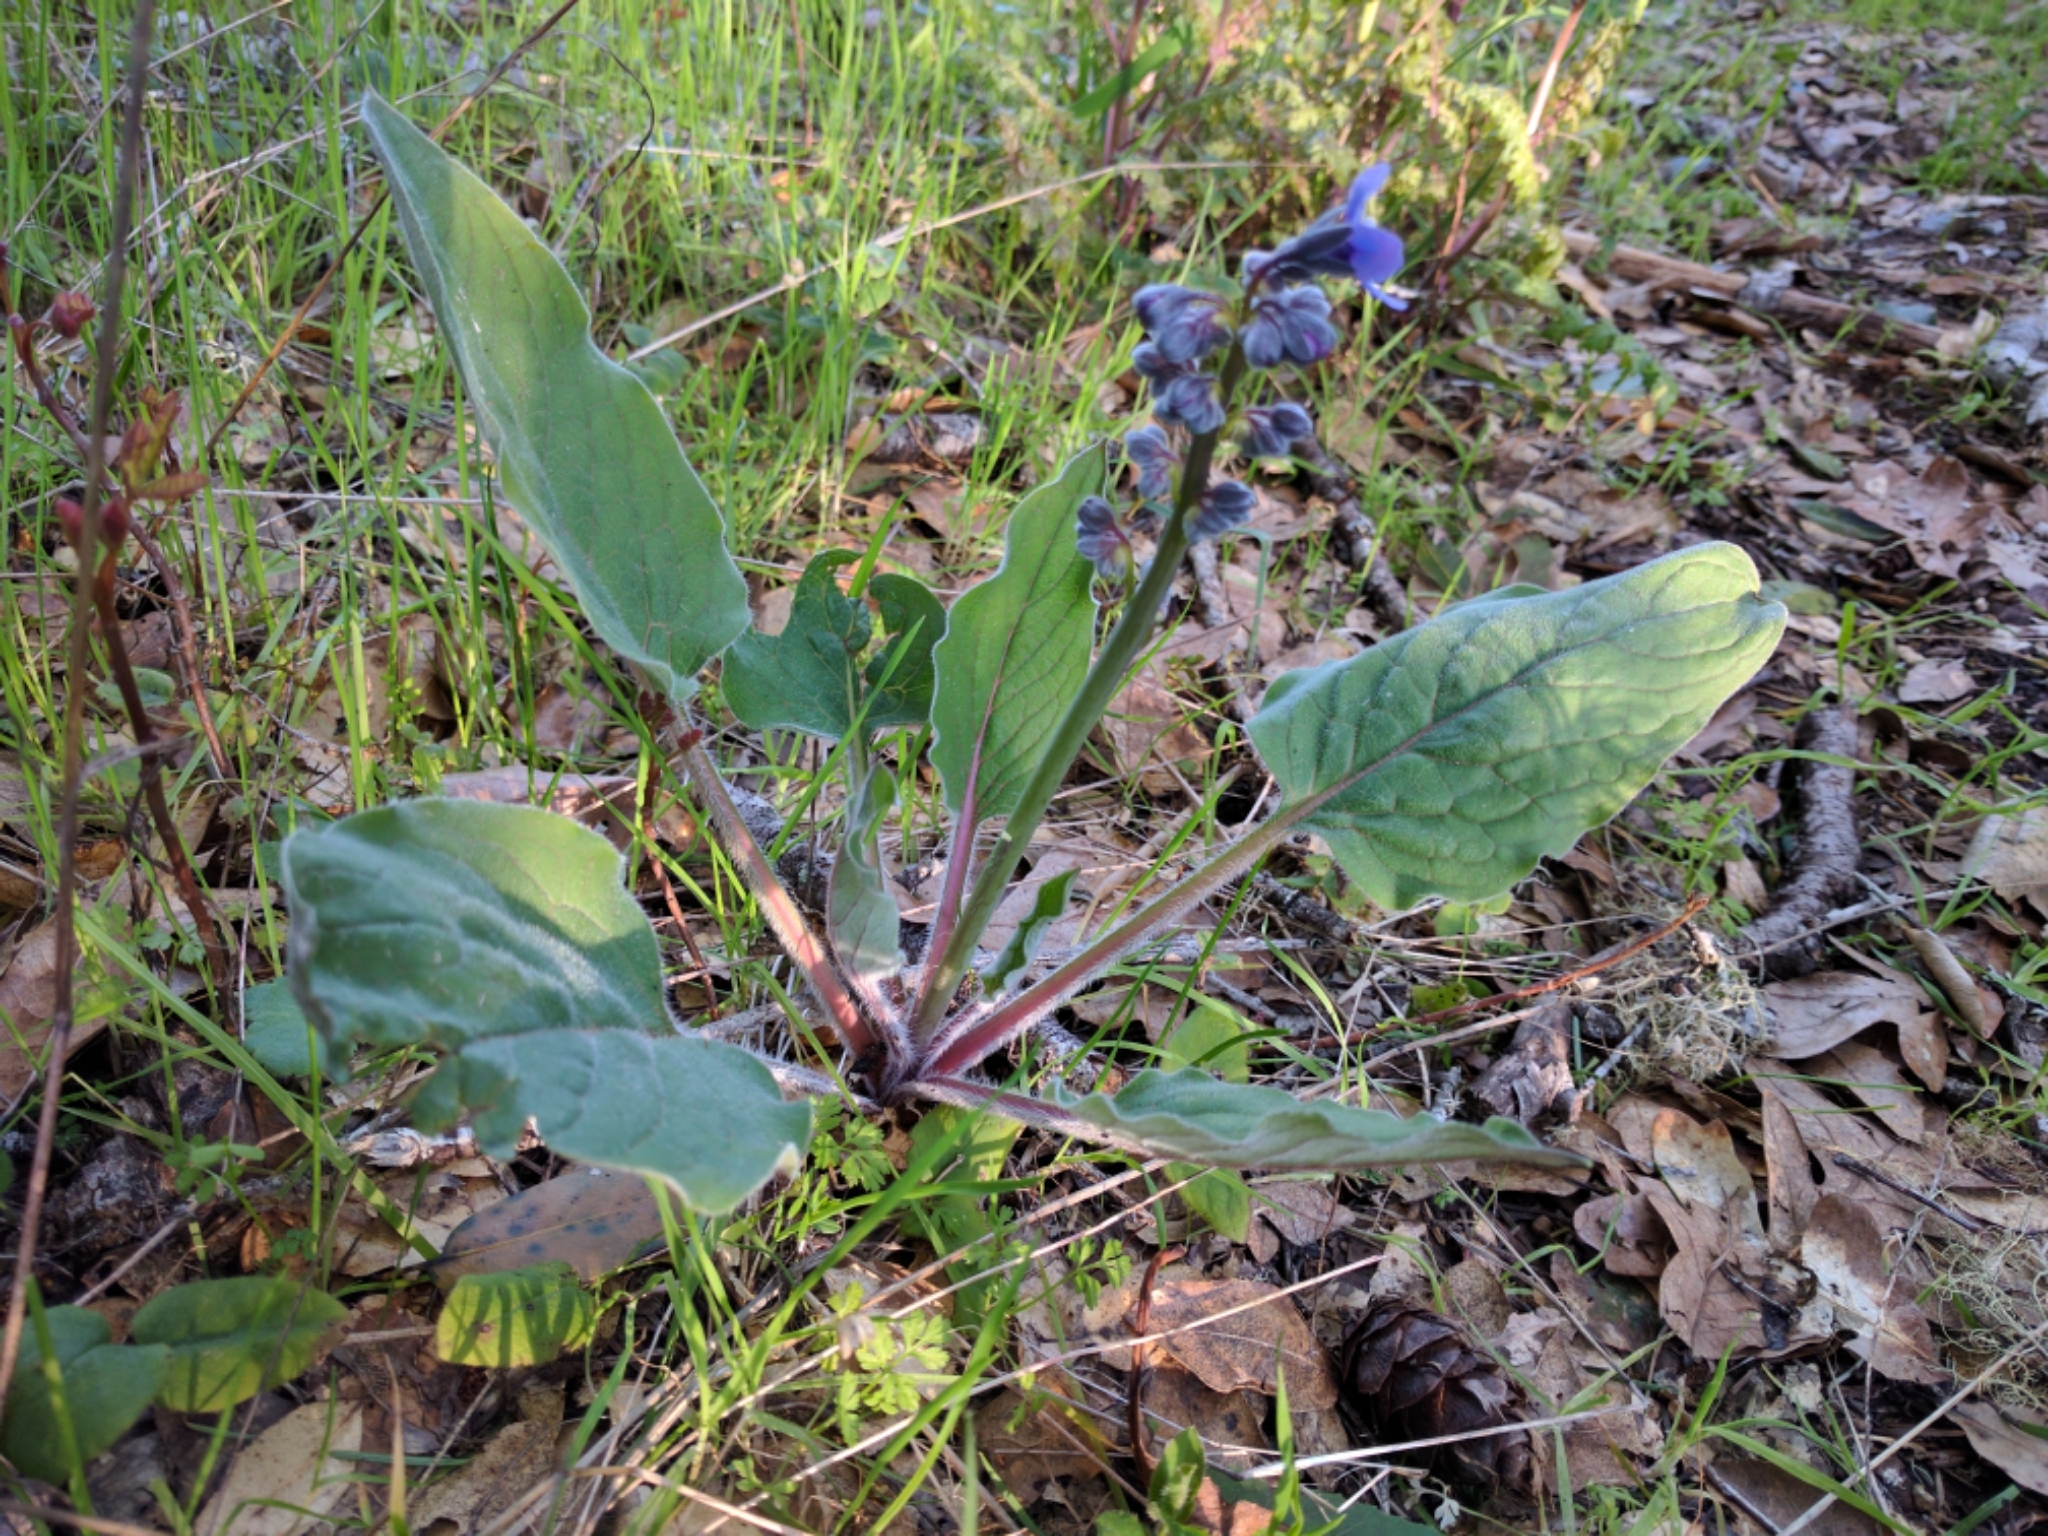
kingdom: Plantae
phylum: Tracheophyta
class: Magnoliopsida
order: Boraginales
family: Boraginaceae
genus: Adelinia
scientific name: Adelinia grande
